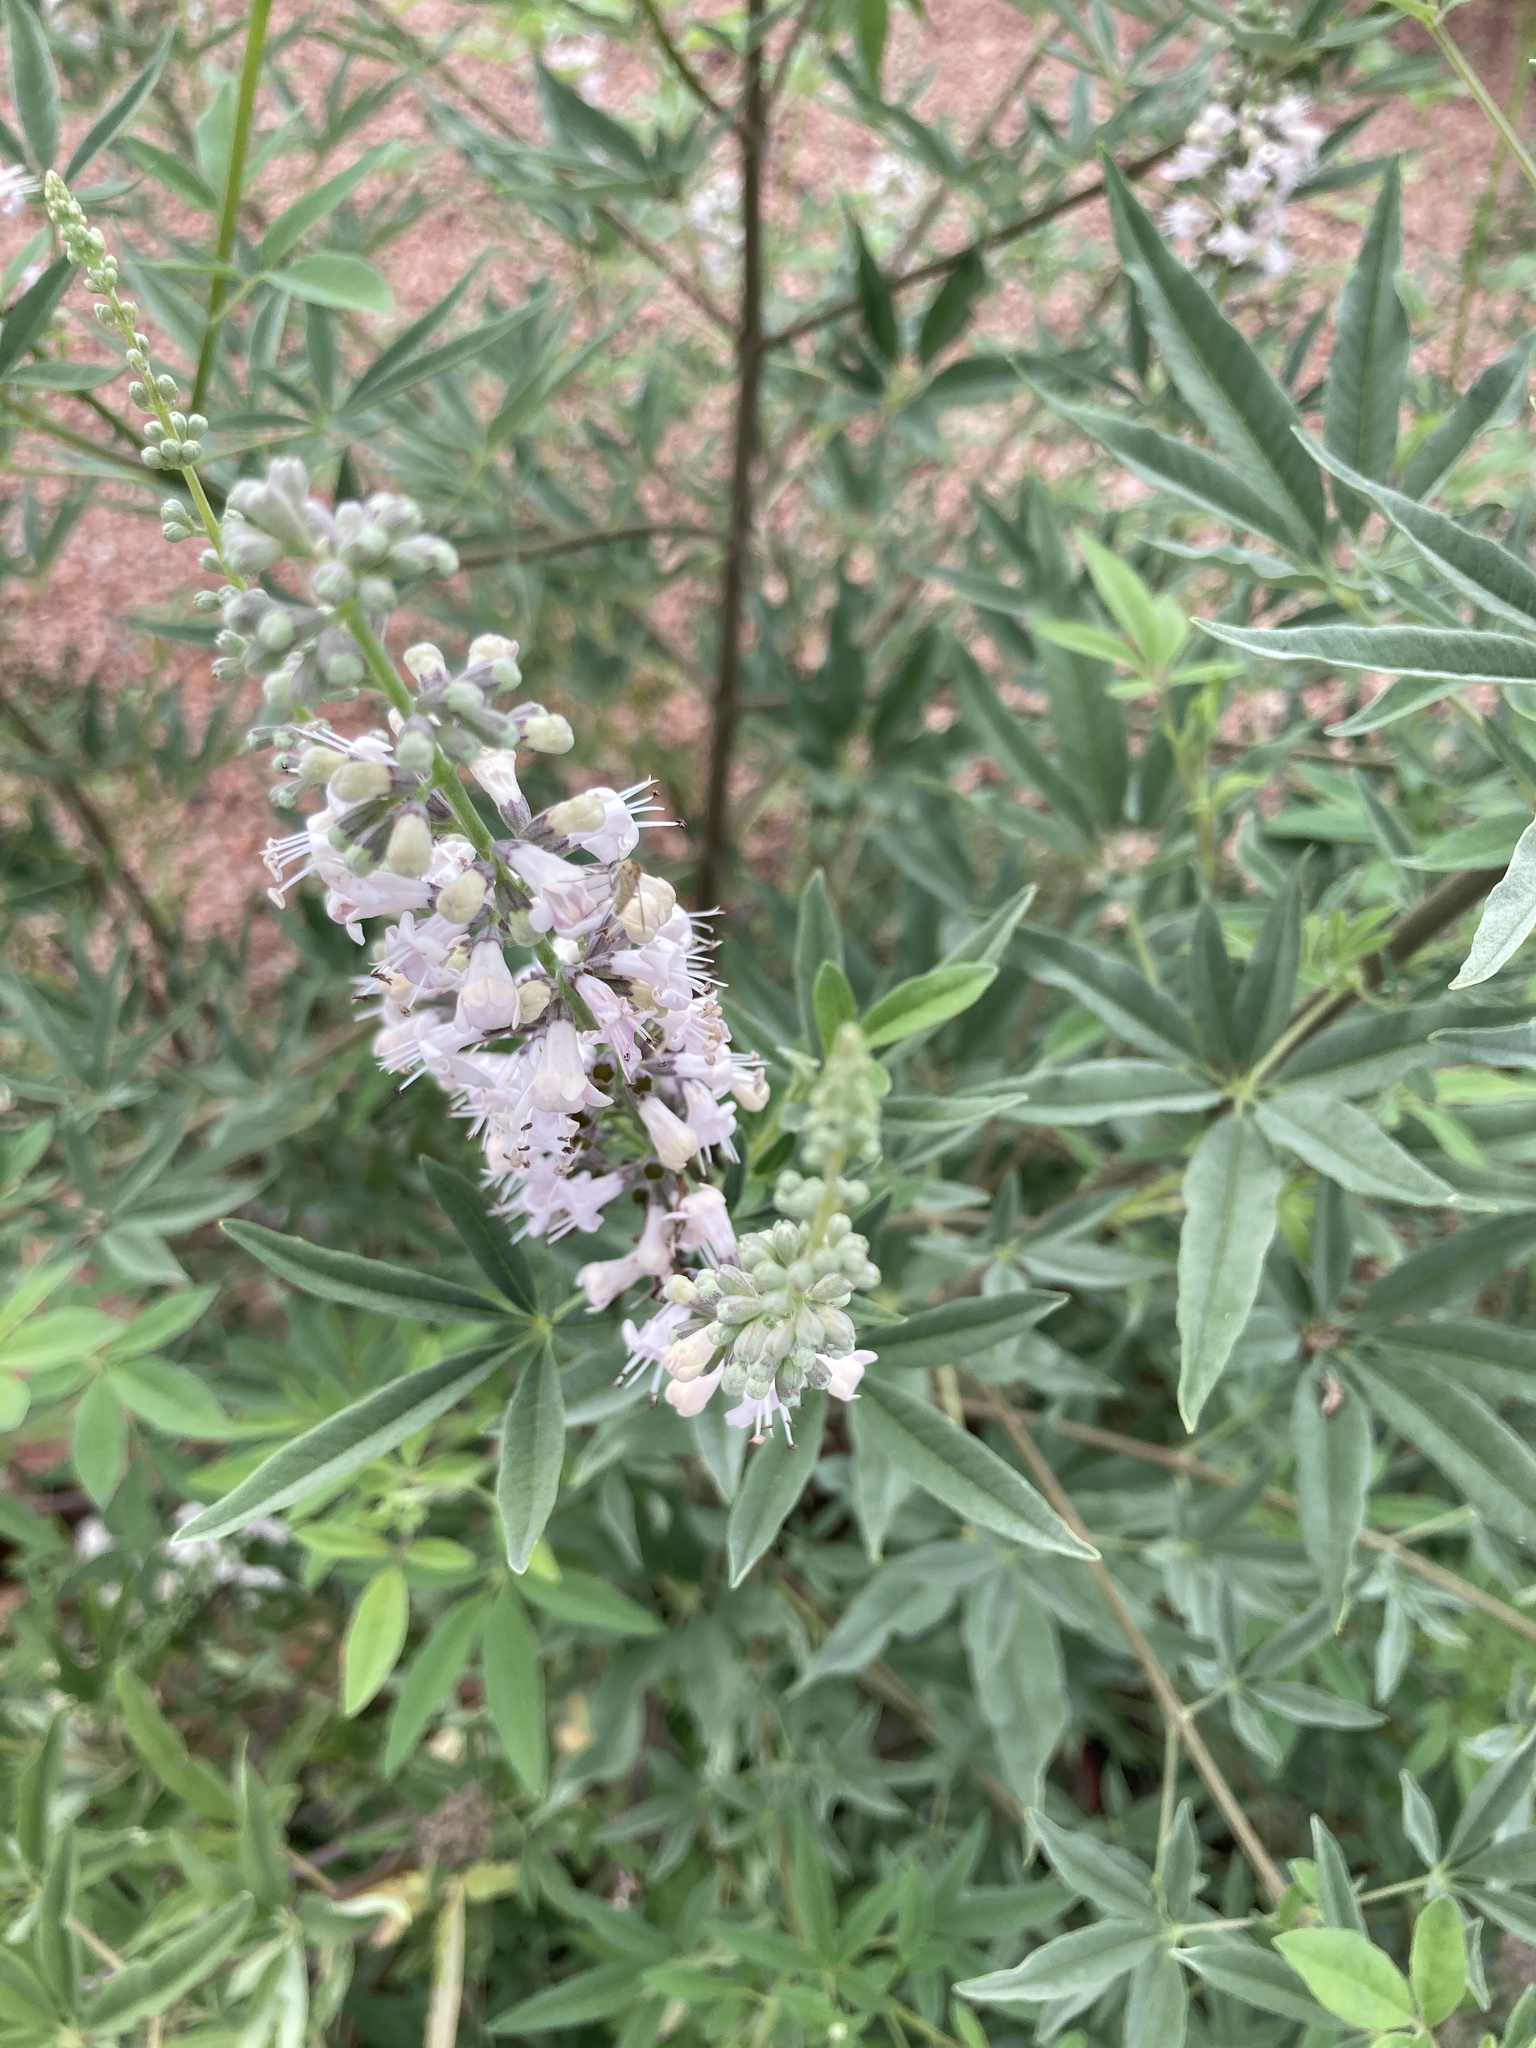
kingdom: Plantae
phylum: Tracheophyta
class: Magnoliopsida
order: Lamiales
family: Lamiaceae
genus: Vitex
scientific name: Vitex agnus-castus
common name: Chasteberry
